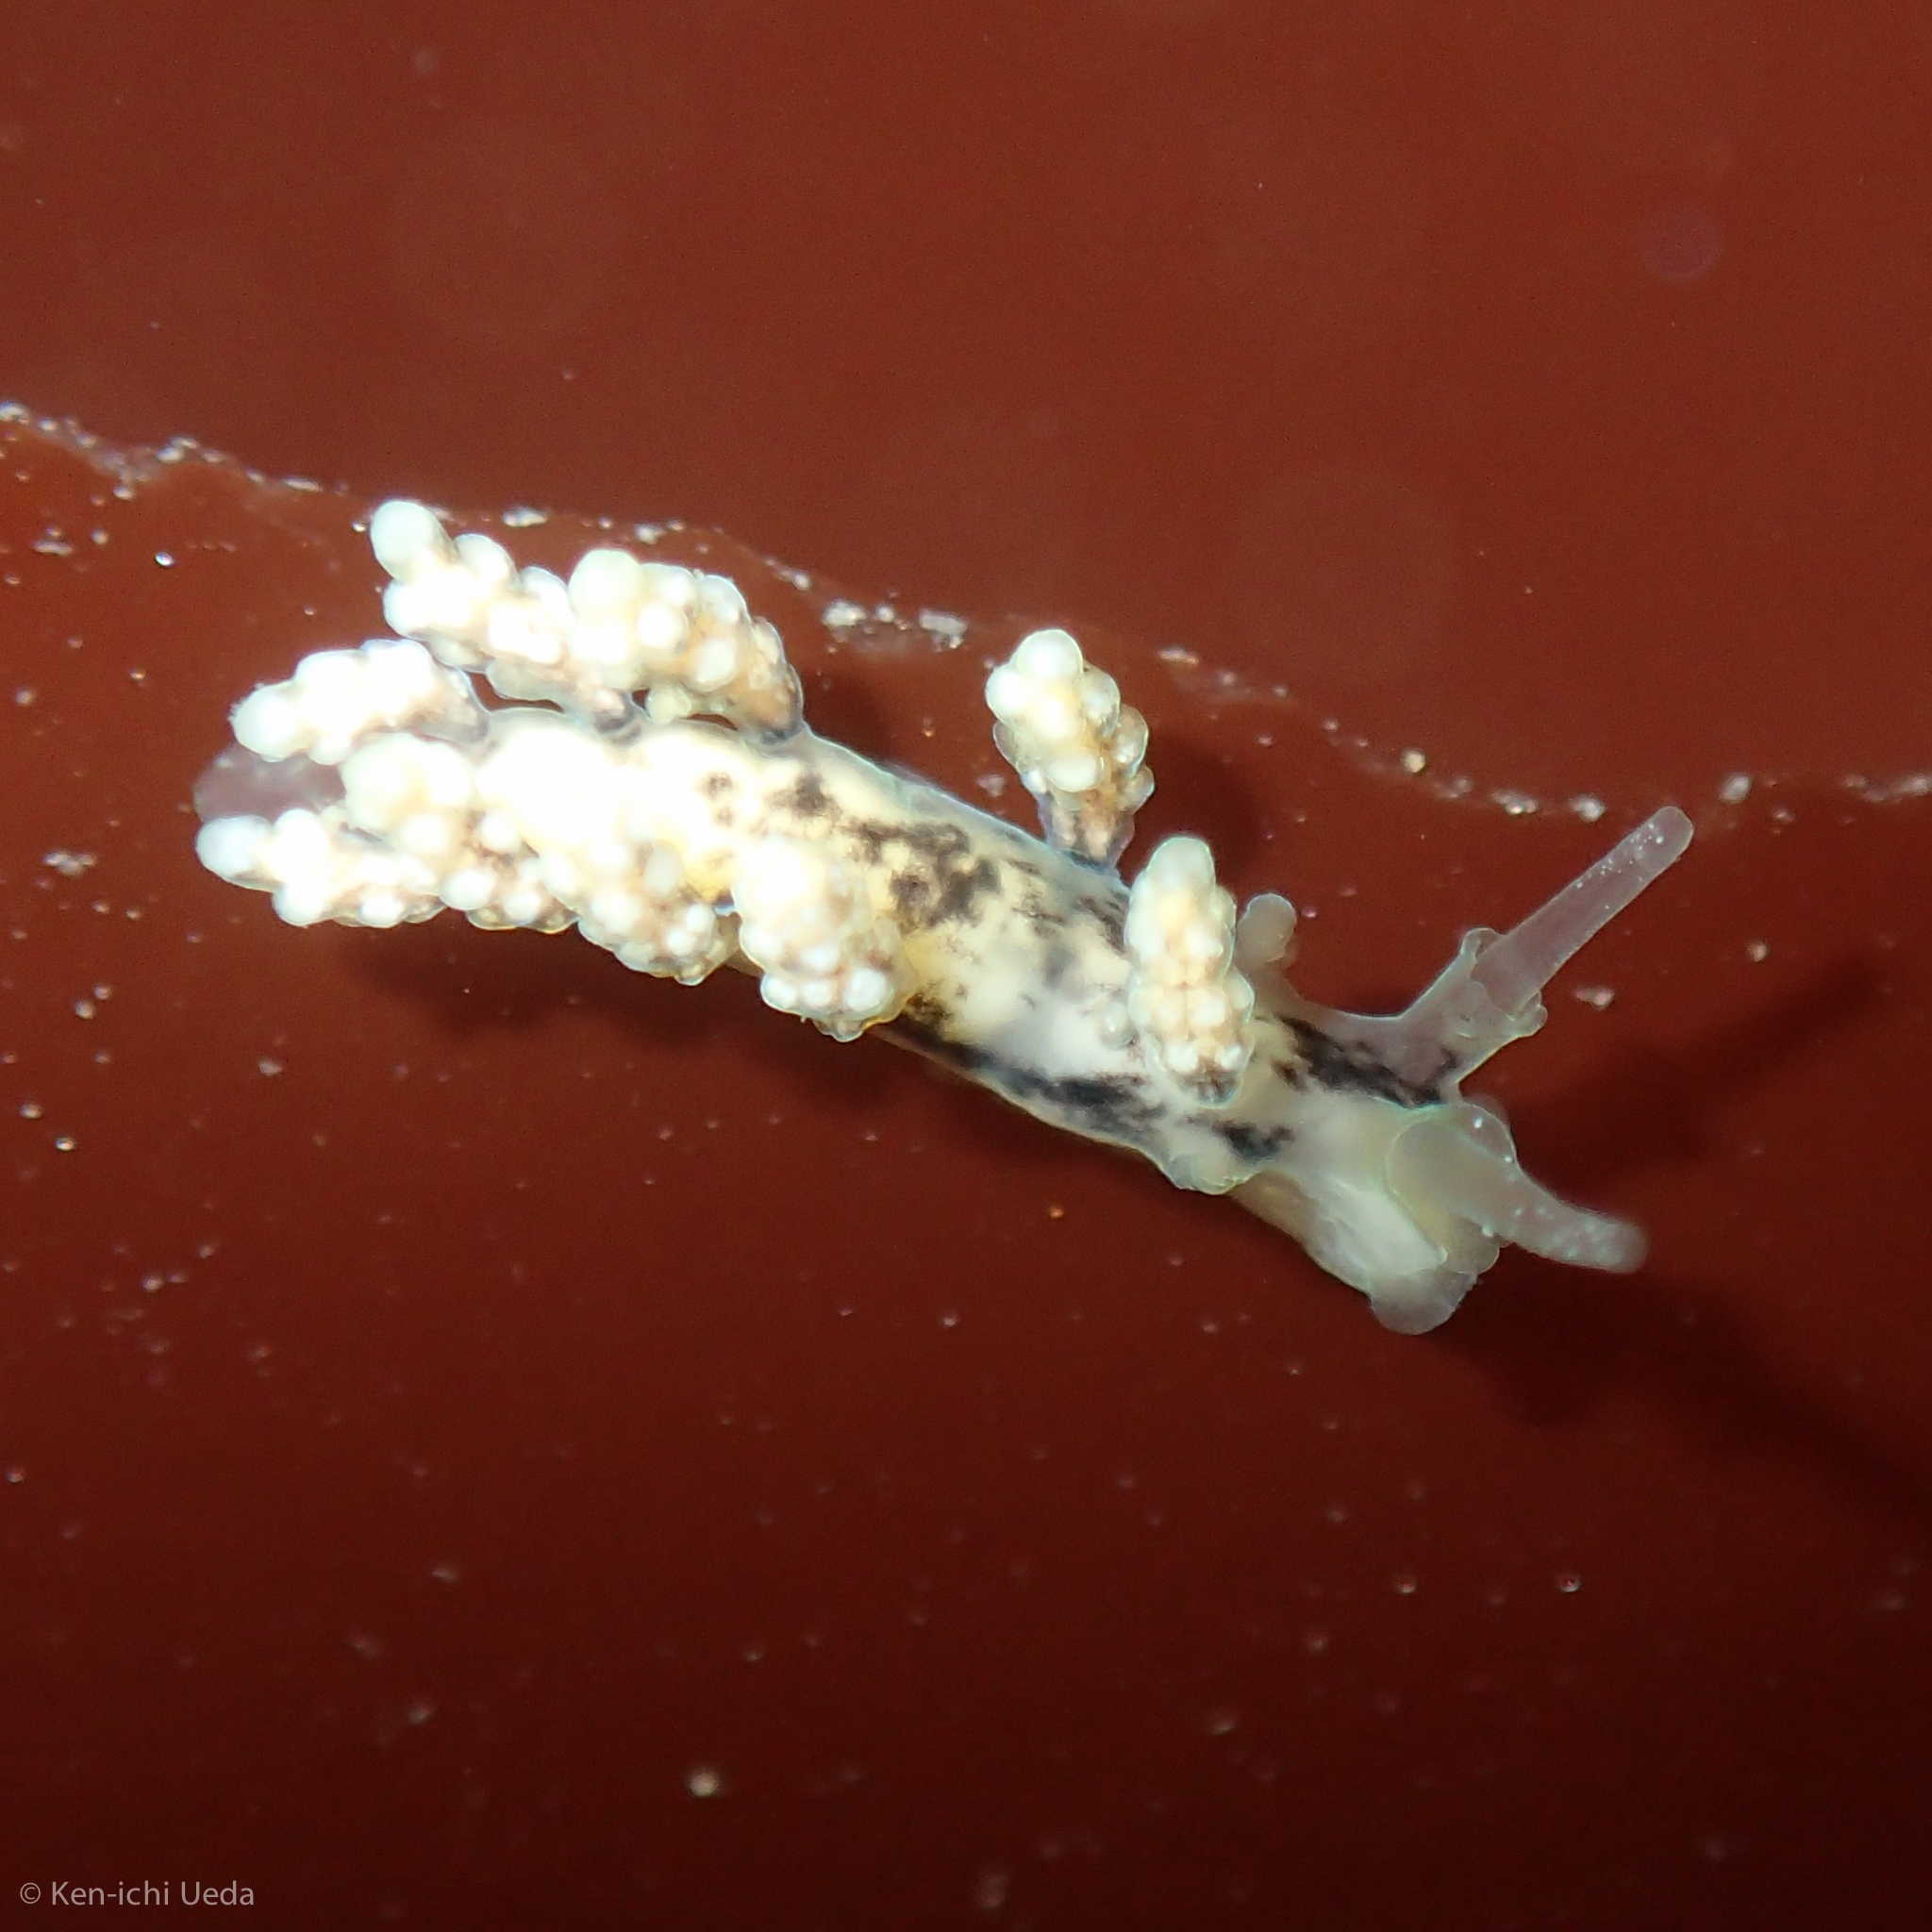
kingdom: Animalia
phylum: Mollusca
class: Gastropoda
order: Nudibranchia
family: Dotidae
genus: Doto
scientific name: Doto kya
